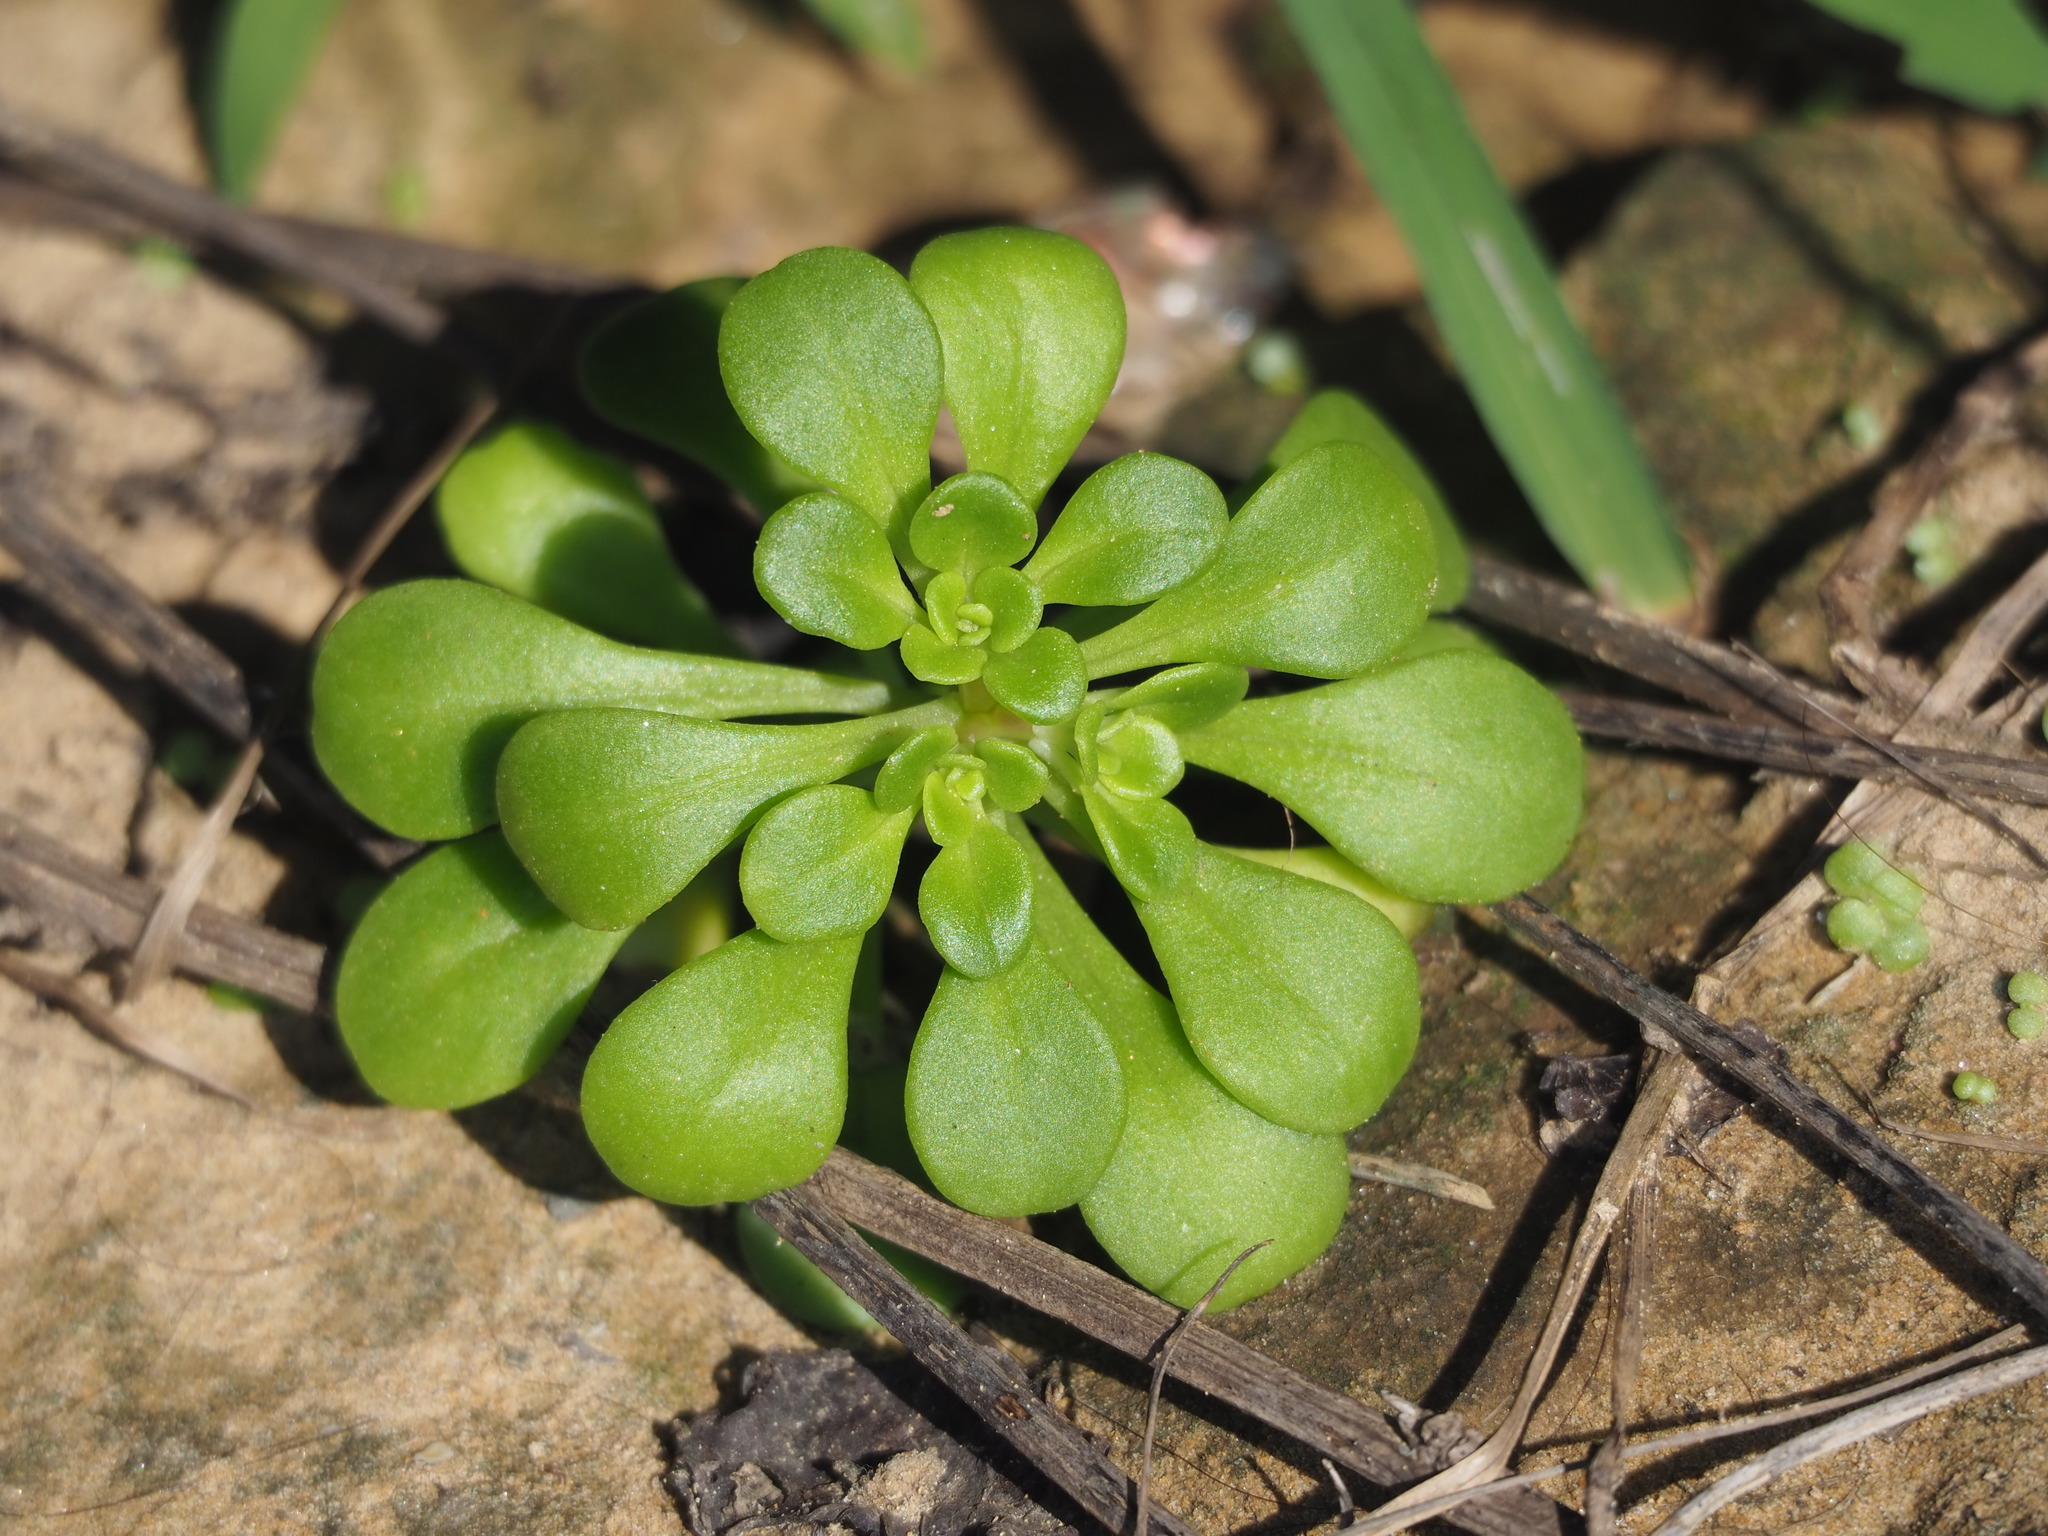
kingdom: Plantae
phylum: Tracheophyta
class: Magnoliopsida
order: Saxifragales
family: Crassulaceae
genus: Sedum
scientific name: Sedum formosanum
